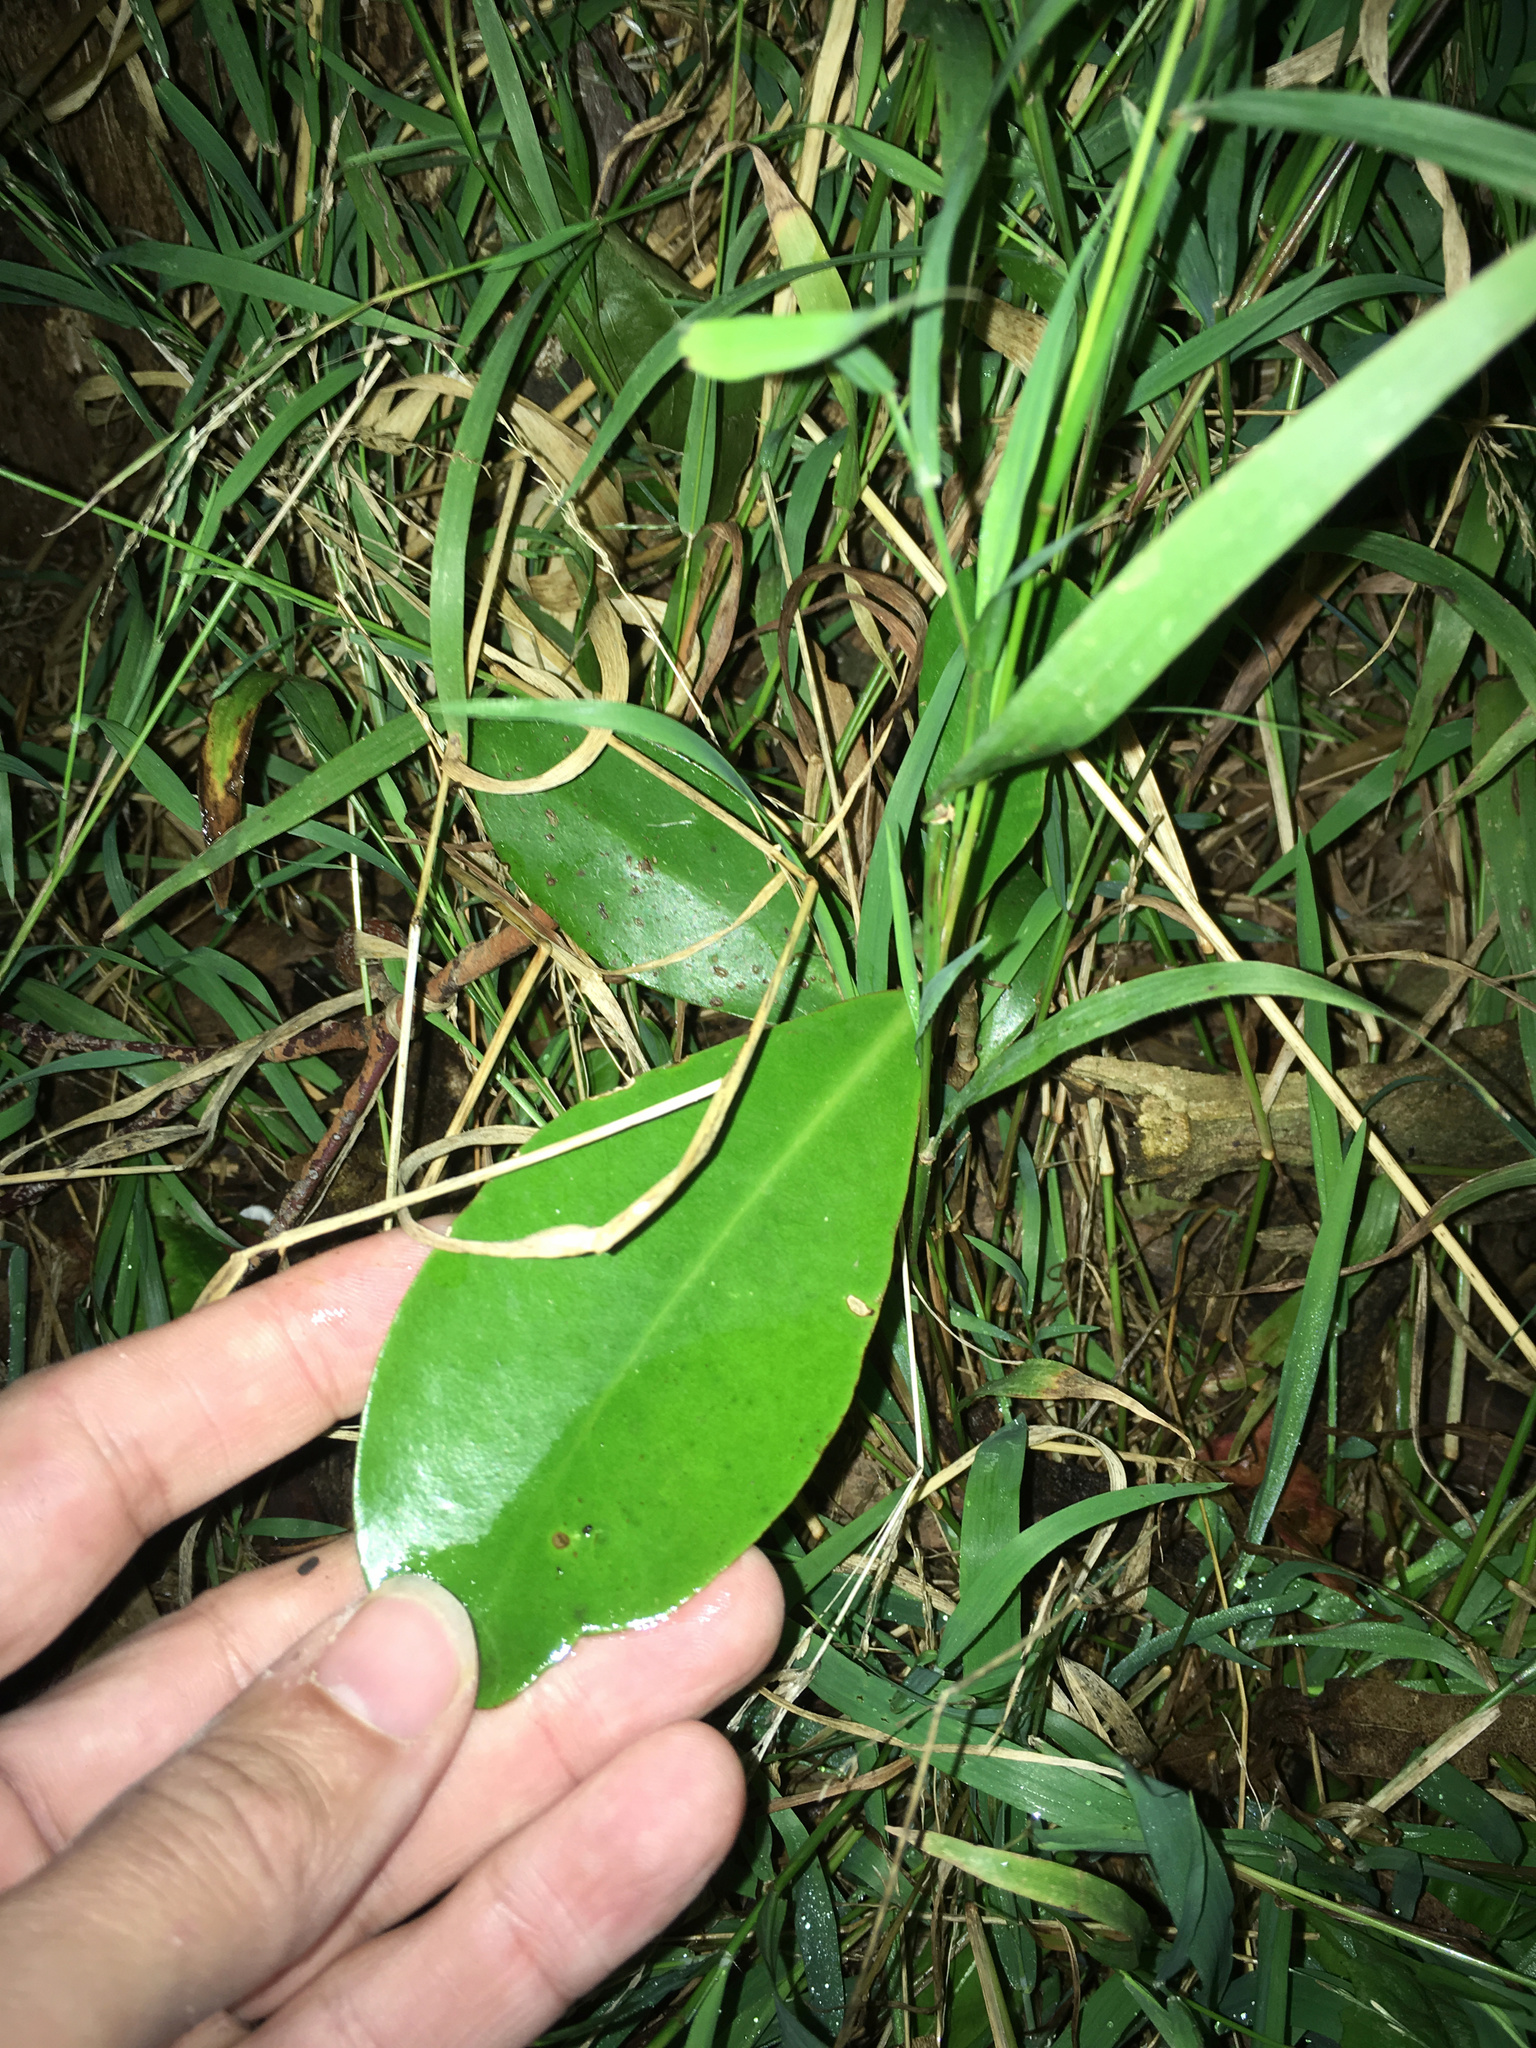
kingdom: Plantae
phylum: Tracheophyta
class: Magnoliopsida
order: Cucurbitales
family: Corynocarpaceae
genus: Corynocarpus
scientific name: Corynocarpus laevigatus
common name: New zealand laurel
